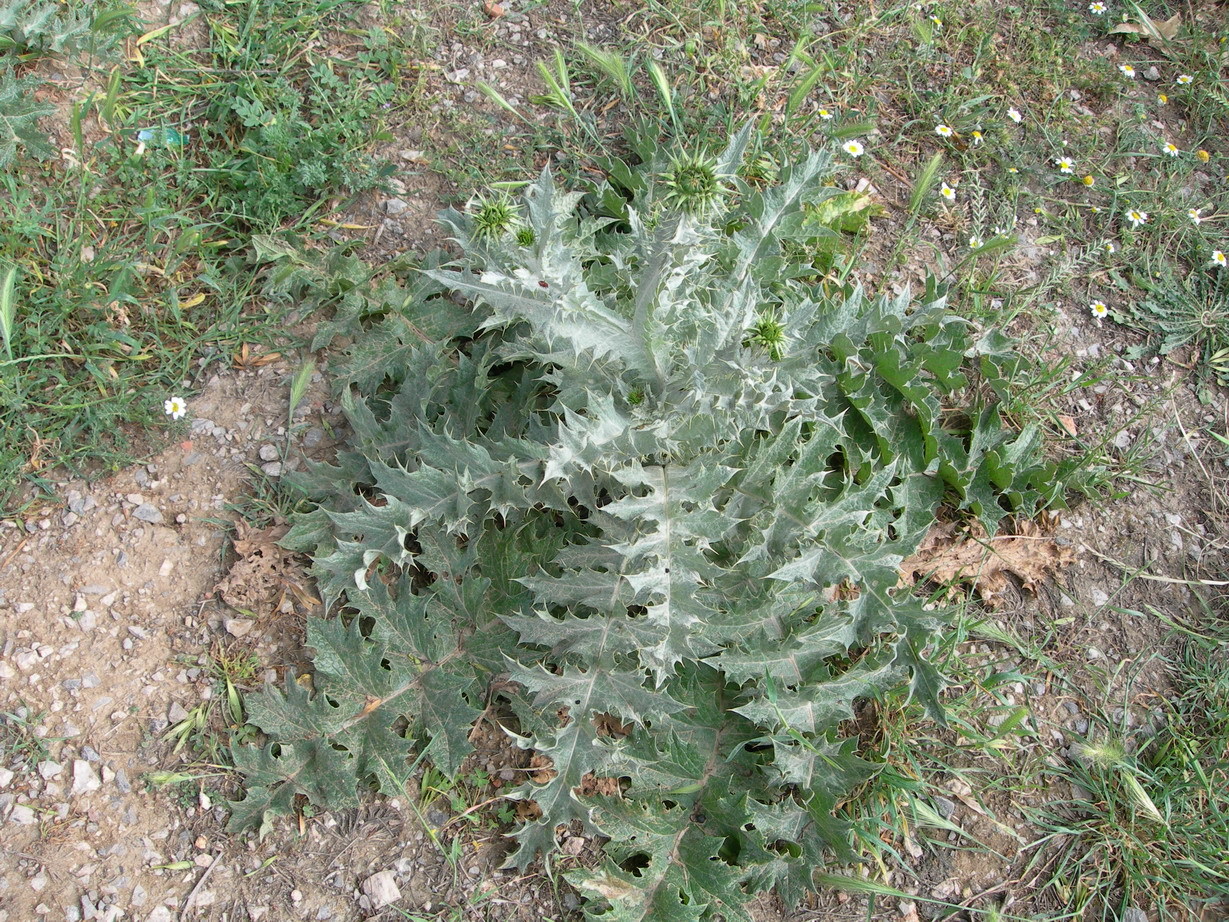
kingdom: Plantae
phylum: Tracheophyta
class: Magnoliopsida
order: Asterales
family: Asteraceae
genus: Onopordum
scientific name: Onopordum macracanthum
